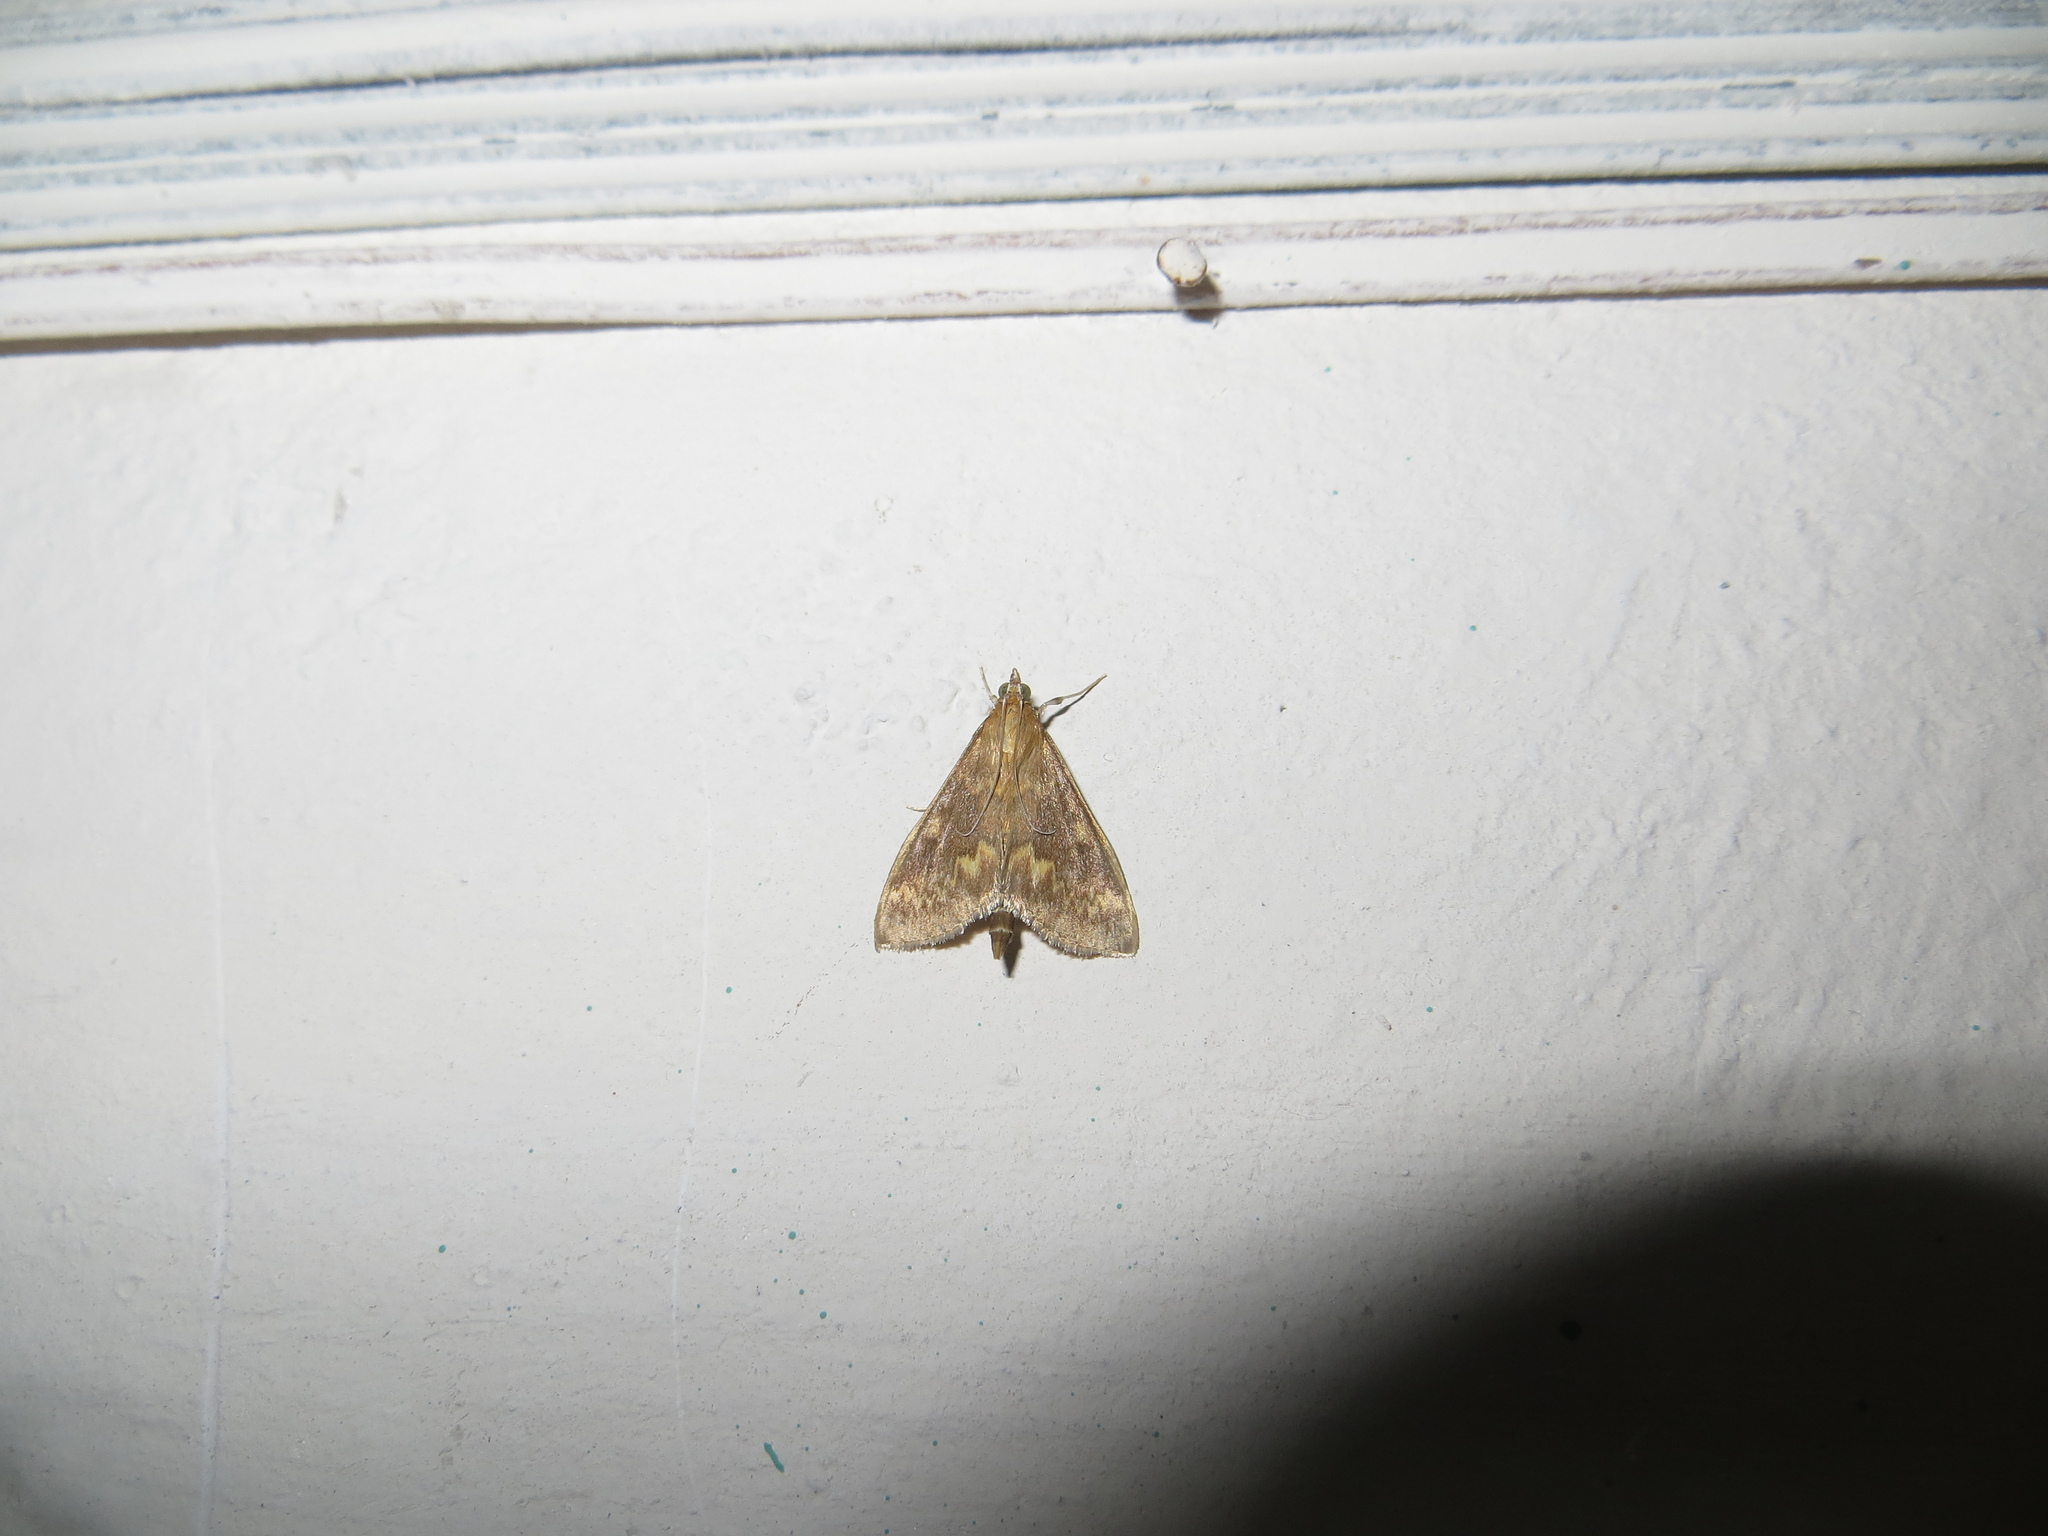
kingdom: Animalia
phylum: Arthropoda
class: Insecta
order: Lepidoptera
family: Crambidae
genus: Ostrinia
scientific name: Ostrinia nubilalis
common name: European corn borer
